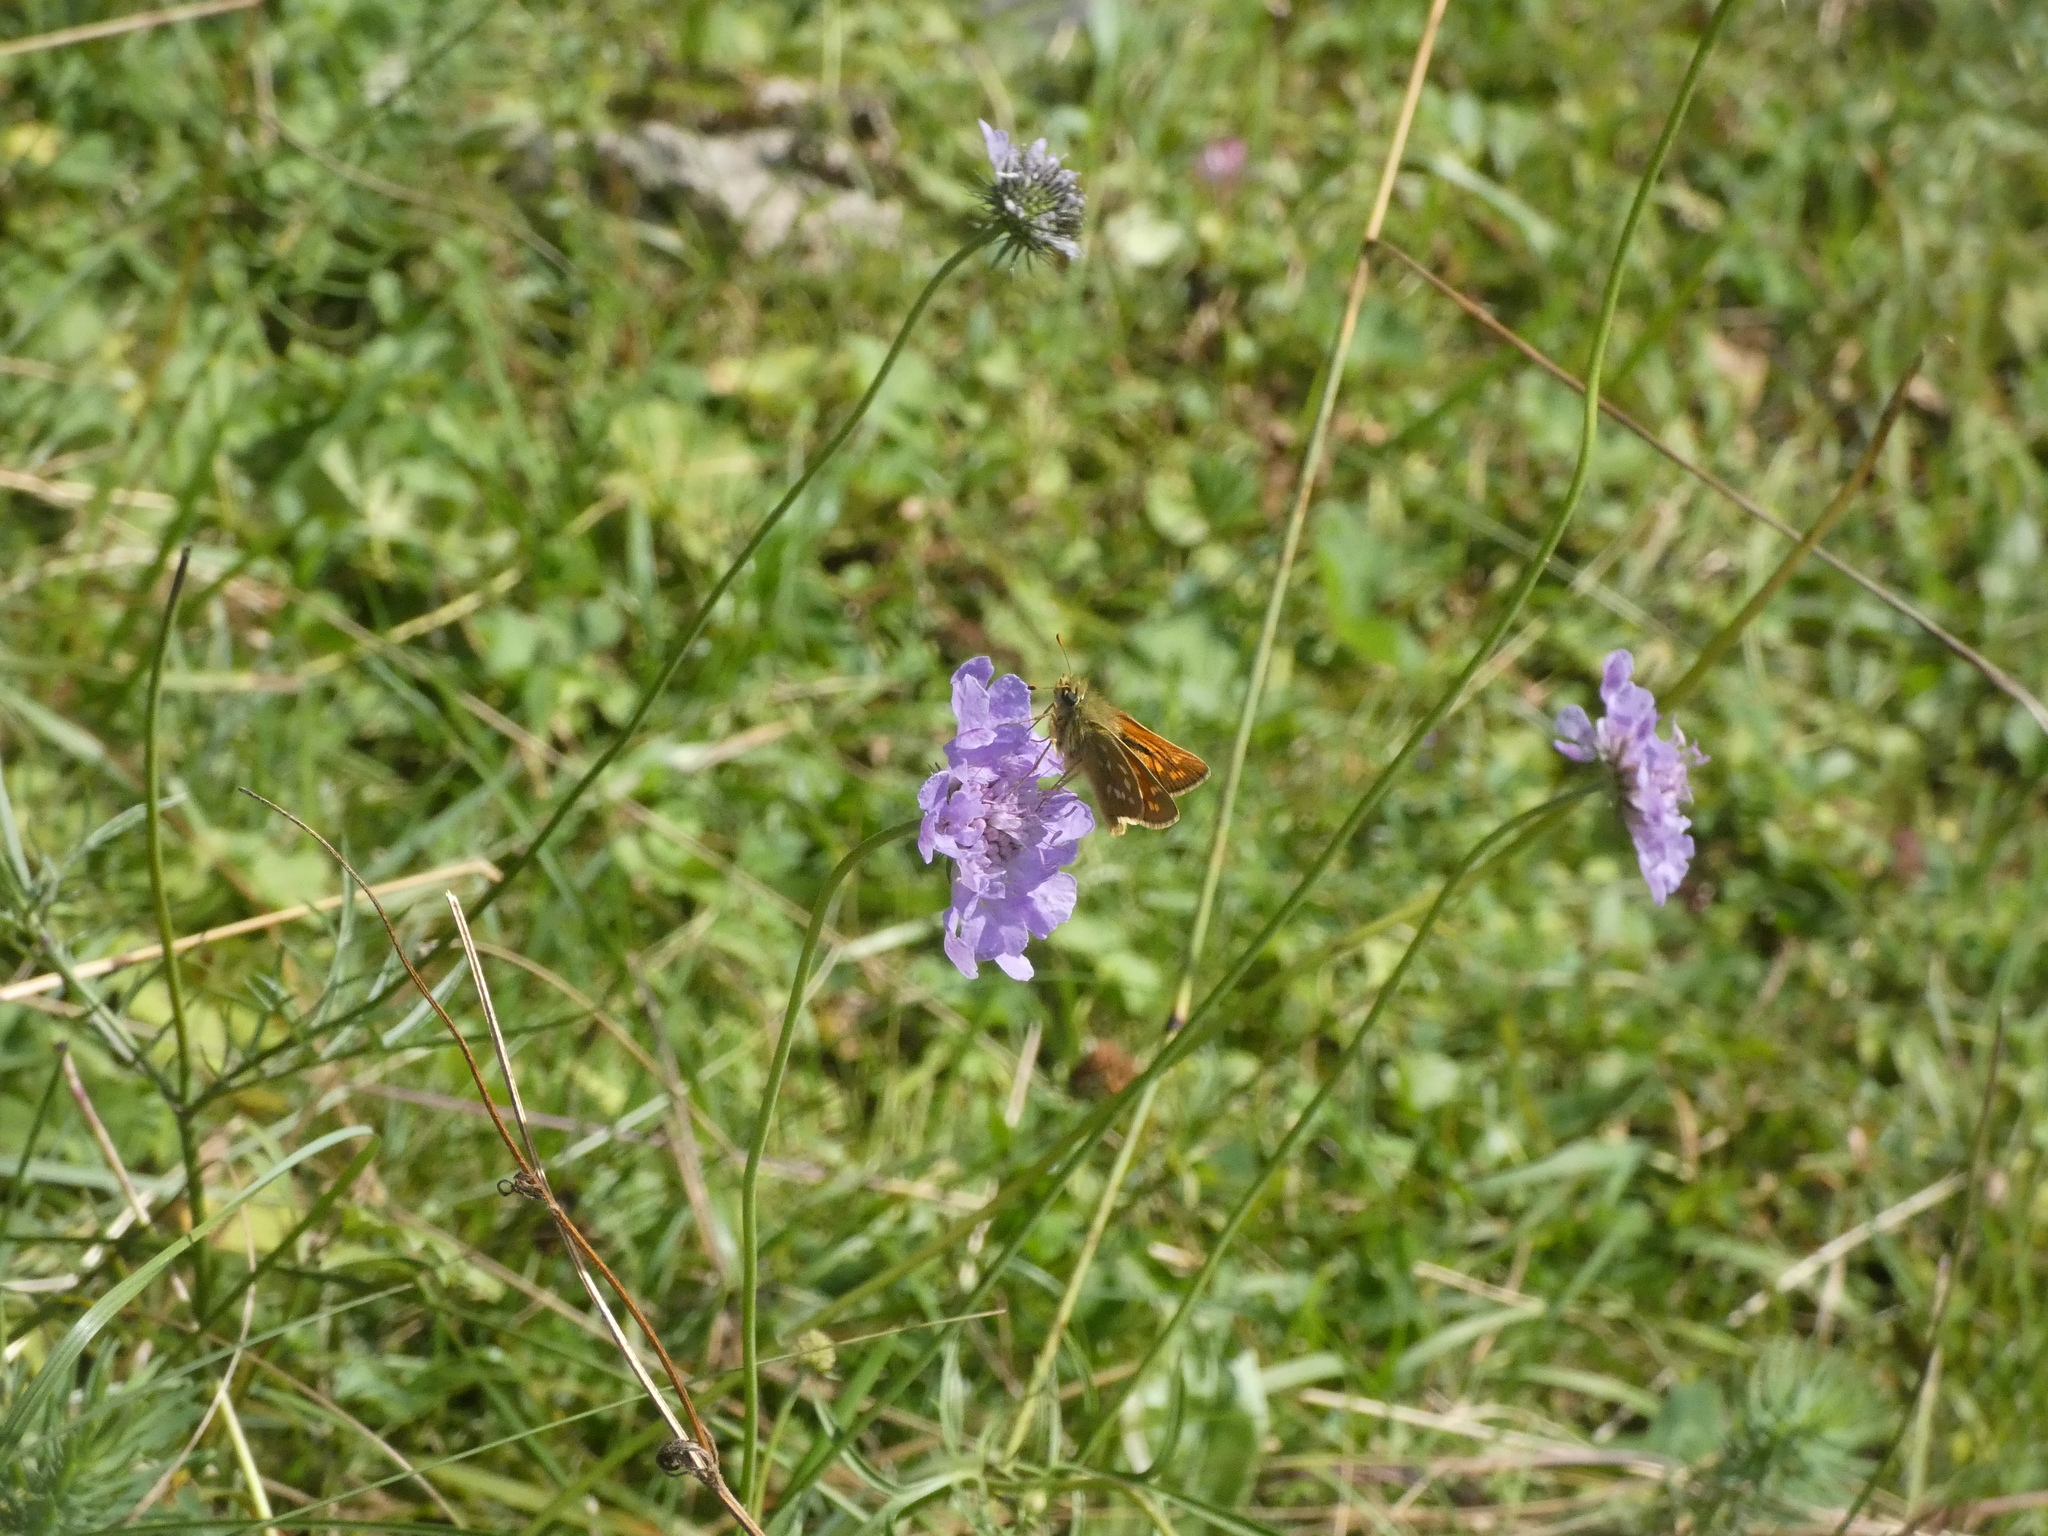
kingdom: Animalia
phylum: Arthropoda
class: Insecta
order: Lepidoptera
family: Hesperiidae
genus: Hesperia
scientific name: Hesperia comma
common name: Common branded skipper
